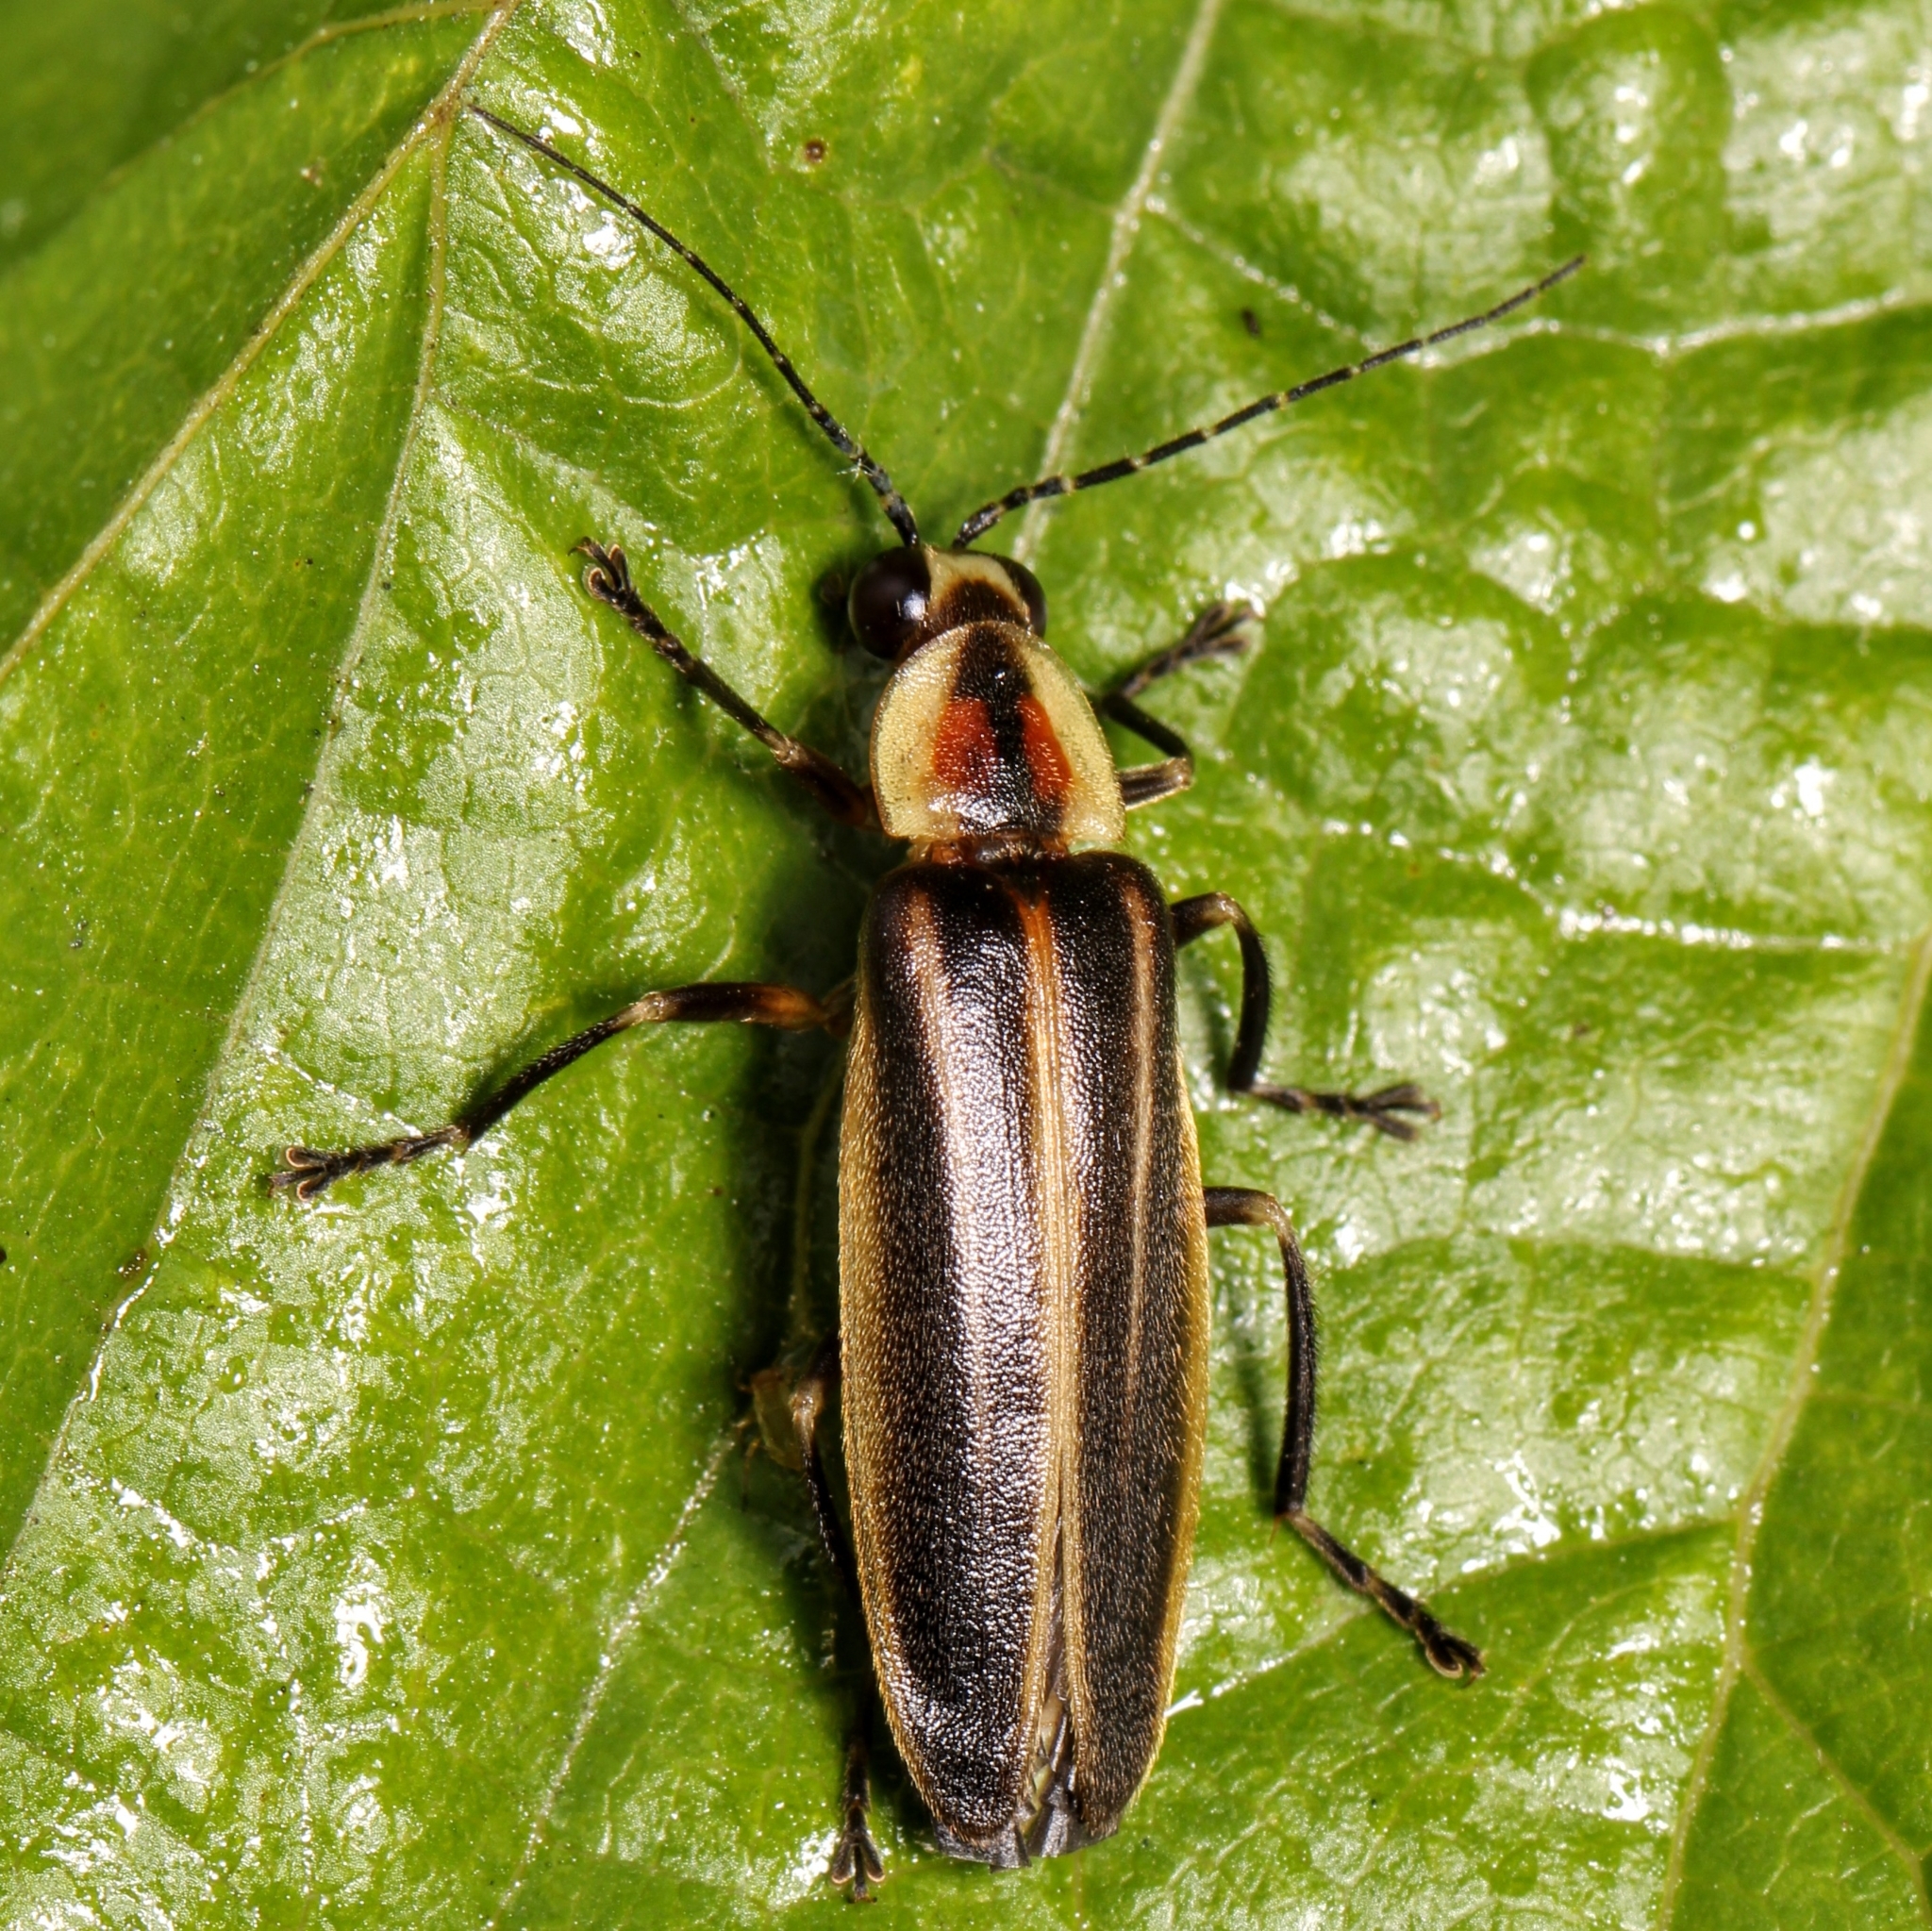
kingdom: Animalia
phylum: Arthropoda
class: Insecta
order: Coleoptera
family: Lampyridae
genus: Photuris
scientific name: Photuris
